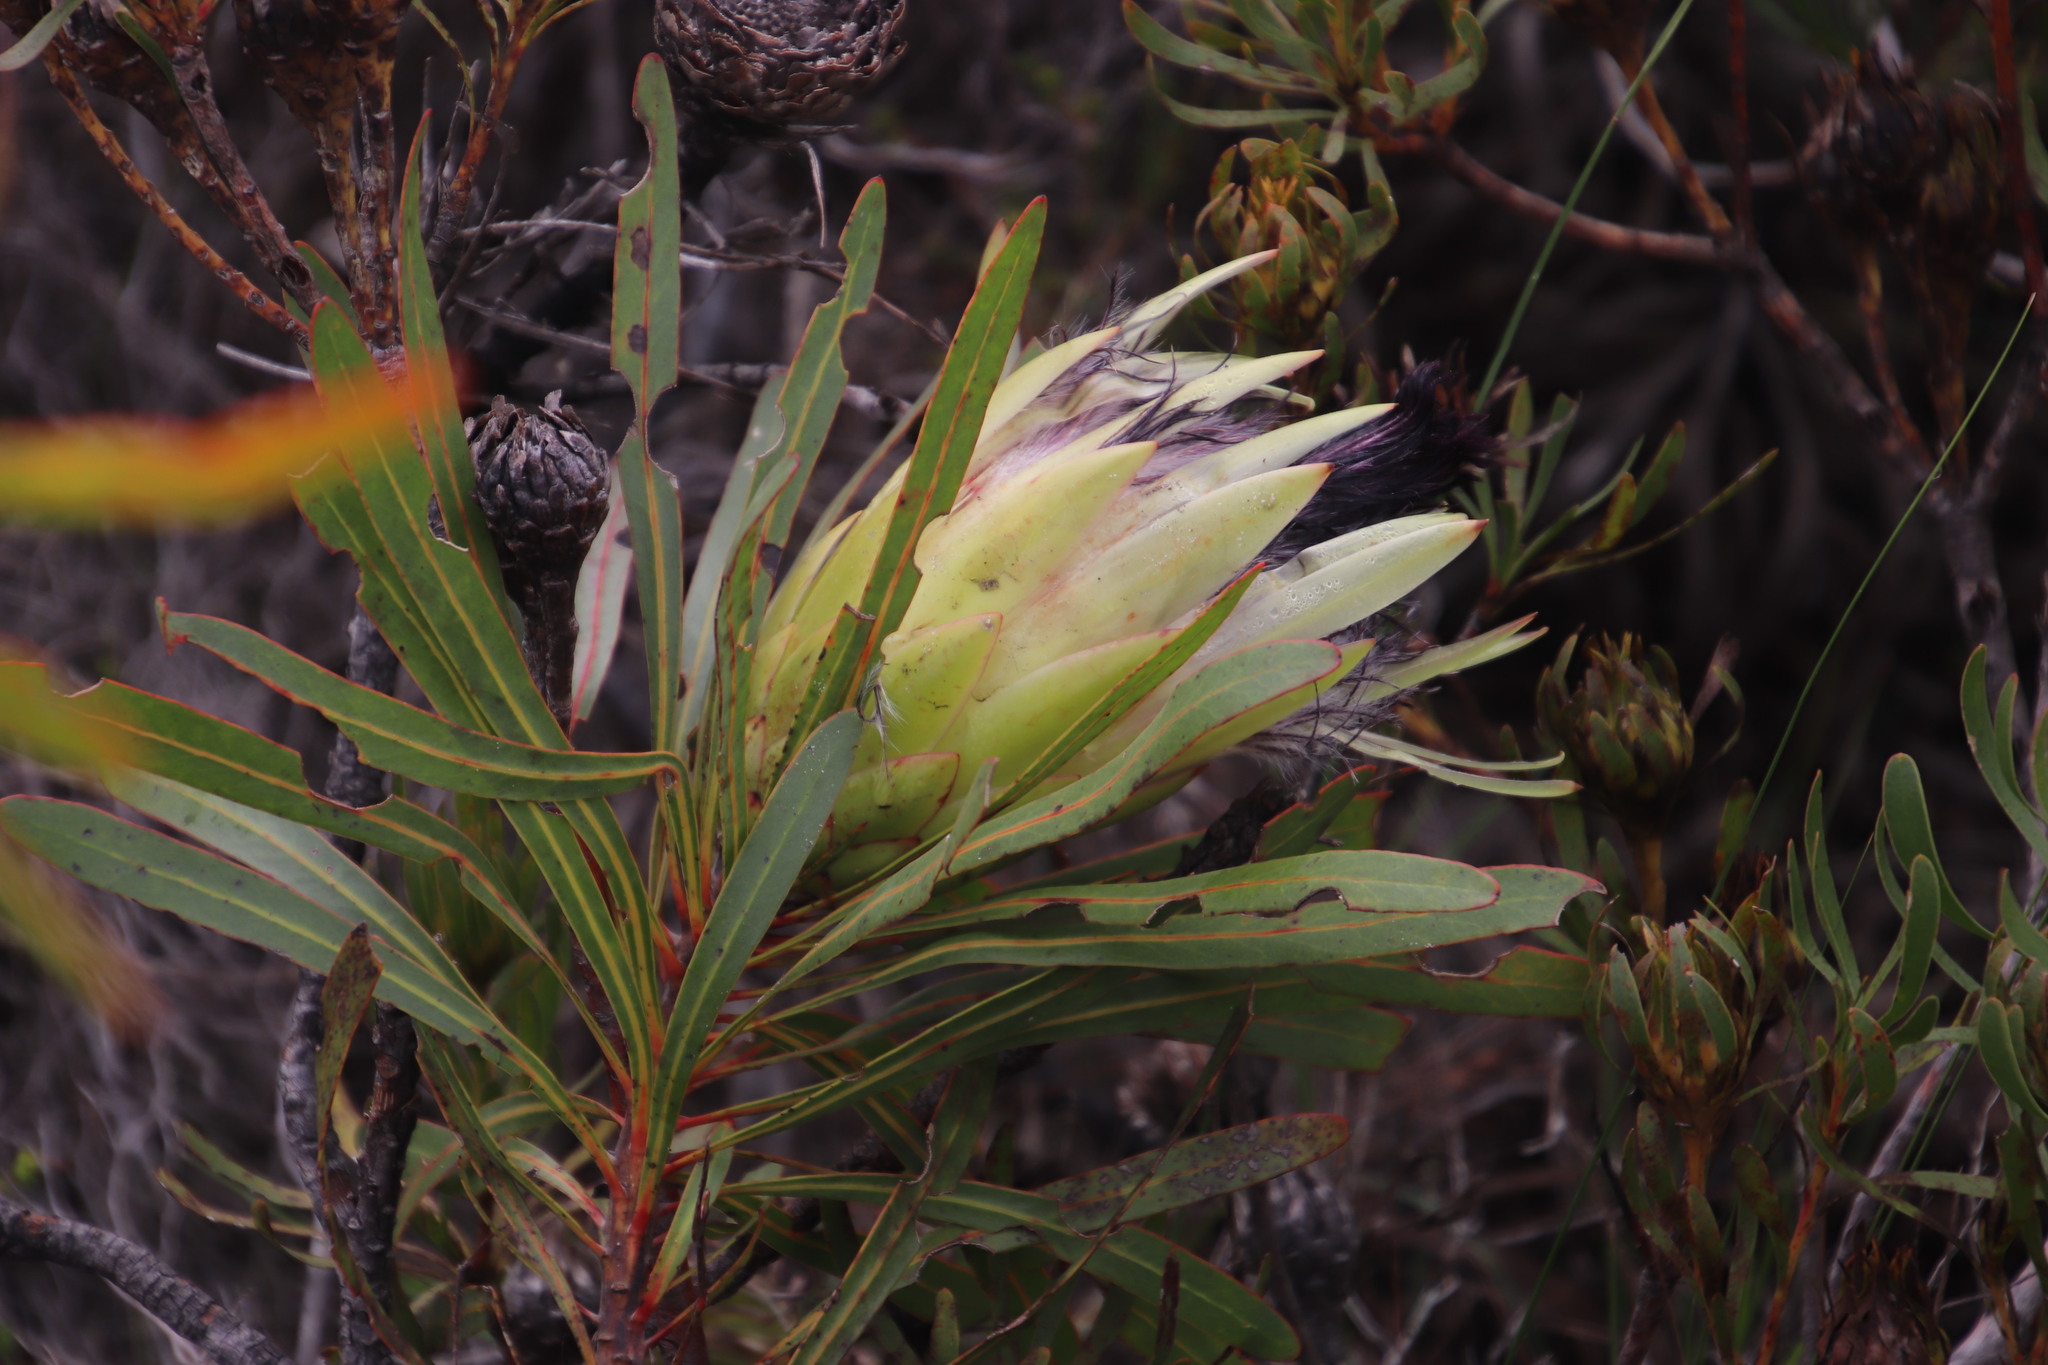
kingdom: Plantae
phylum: Tracheophyta
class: Magnoliopsida
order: Proteales
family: Proteaceae
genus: Protea
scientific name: Protea longifolia
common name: Long-leaf sugarbush
